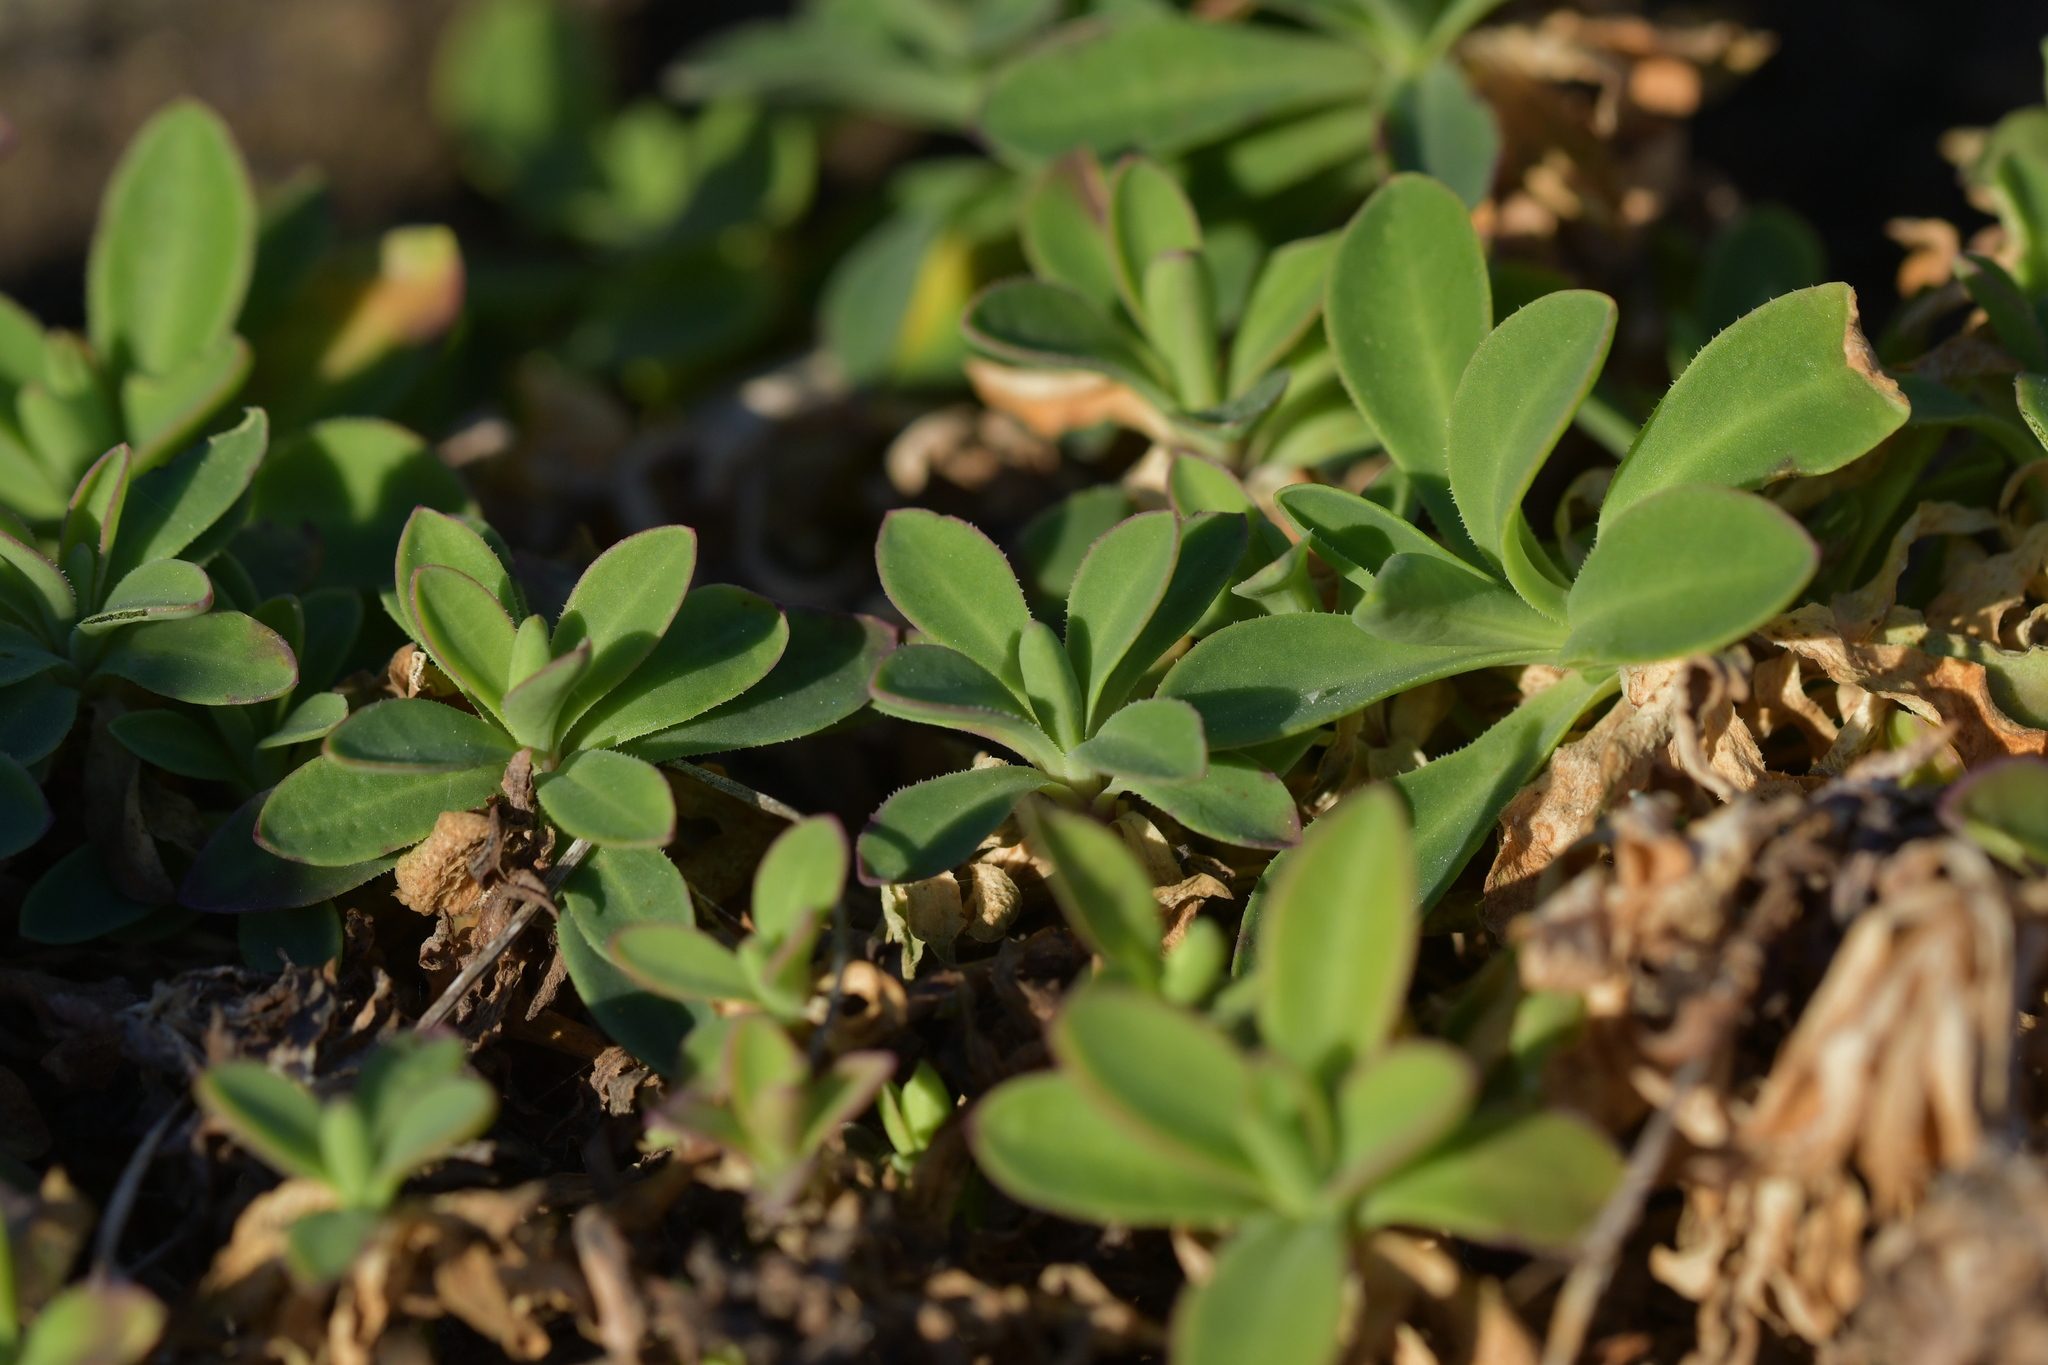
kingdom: Plantae
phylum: Tracheophyta
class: Magnoliopsida
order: Caryophyllales
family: Caryophyllaceae
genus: Silene
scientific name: Silene uniflora
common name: Sea campion
